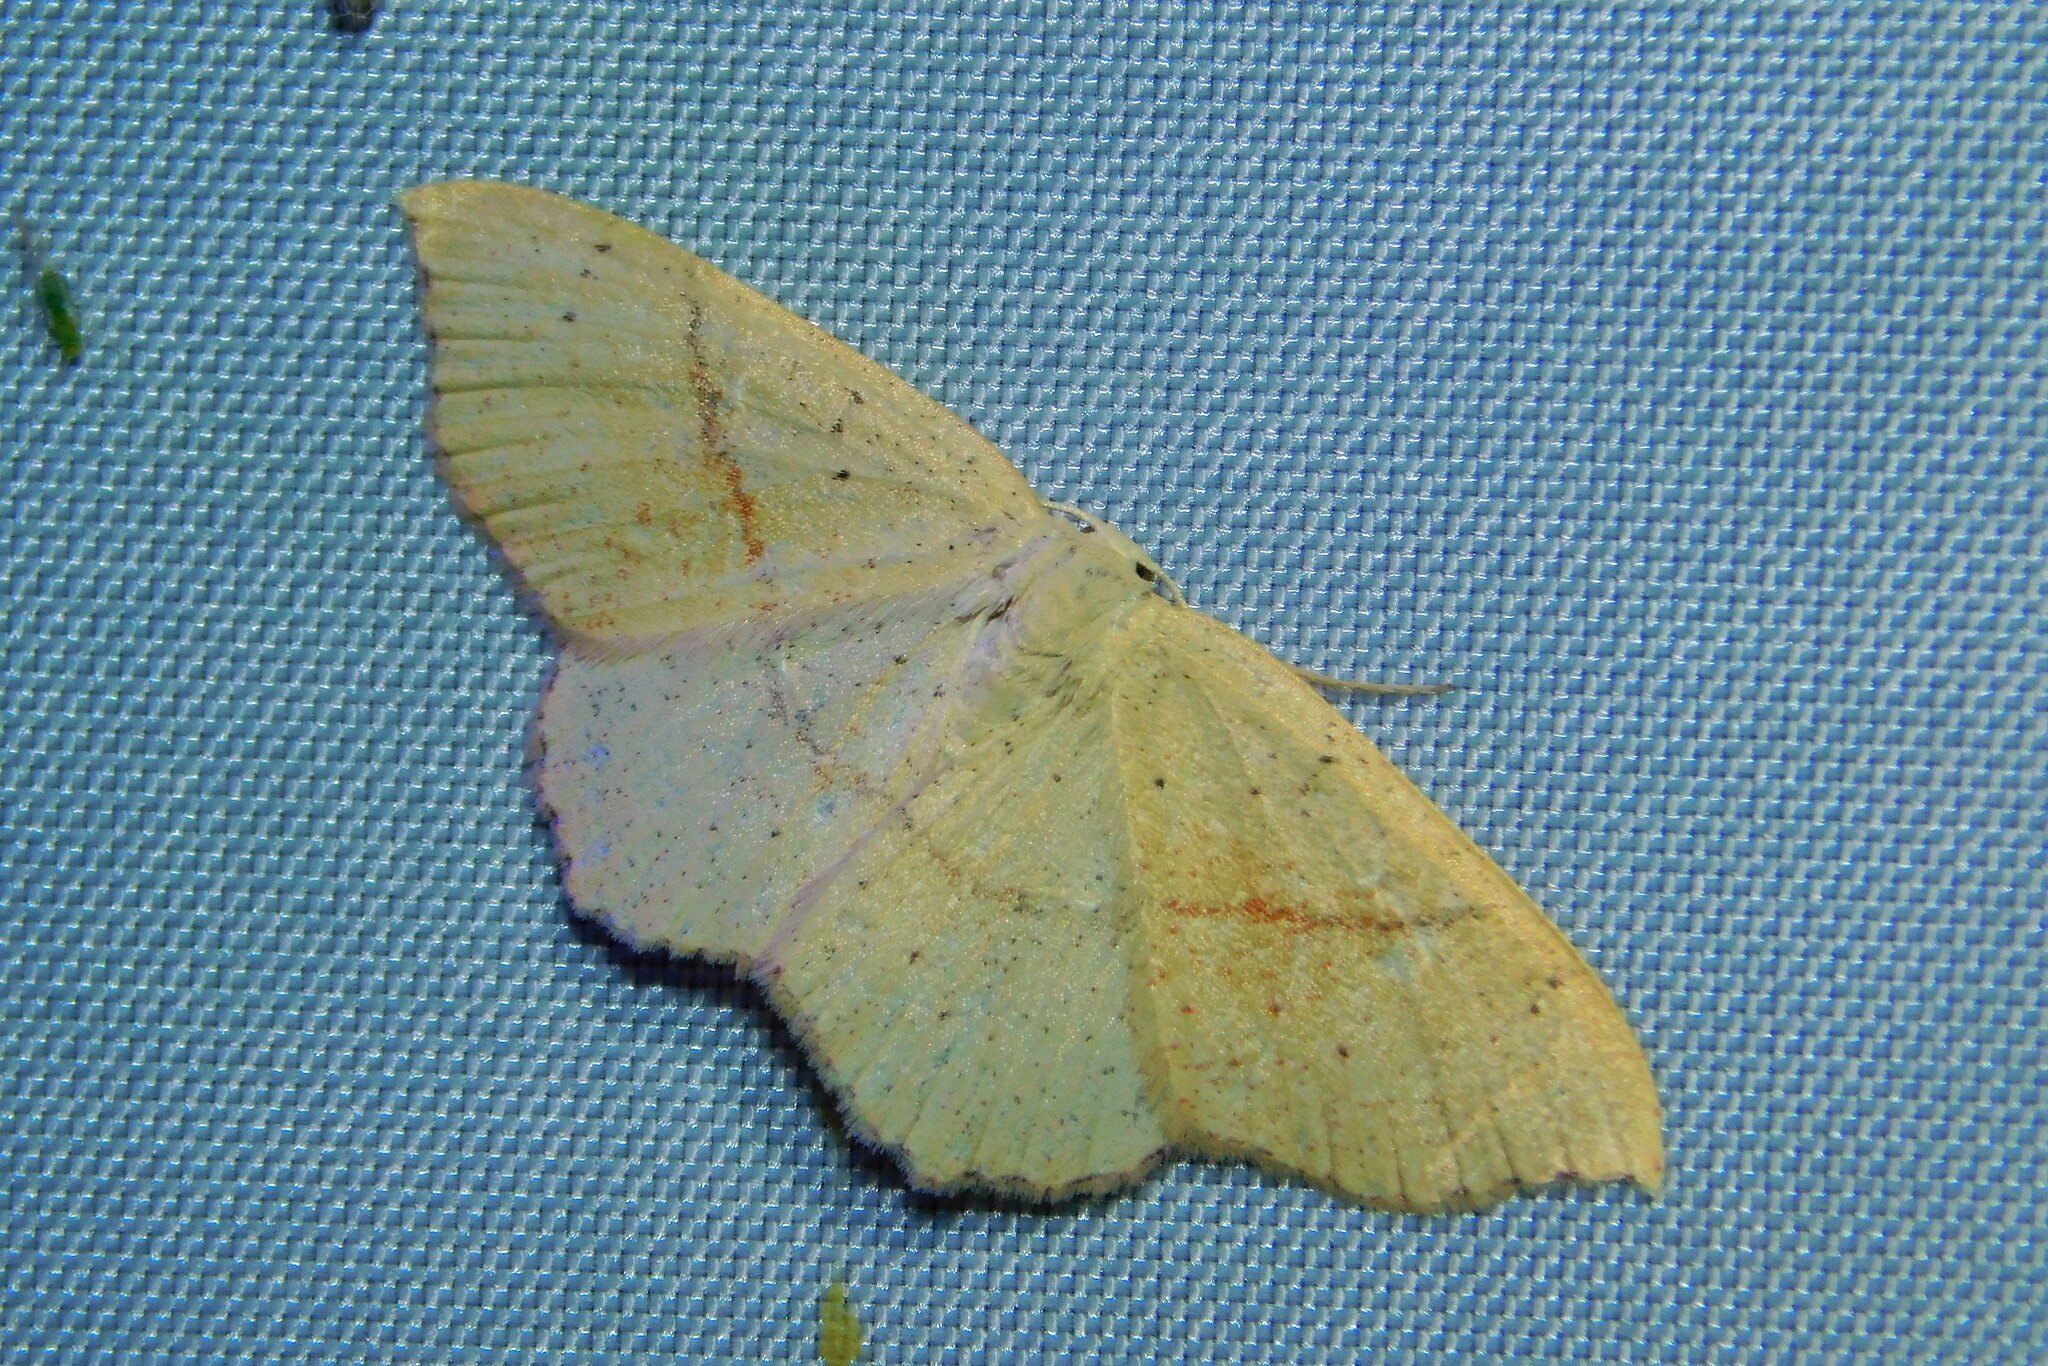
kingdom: Animalia
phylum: Arthropoda
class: Insecta
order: Lepidoptera
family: Geometridae
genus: Cyclophora
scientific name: Cyclophora punctaria
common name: Maiden's blush
